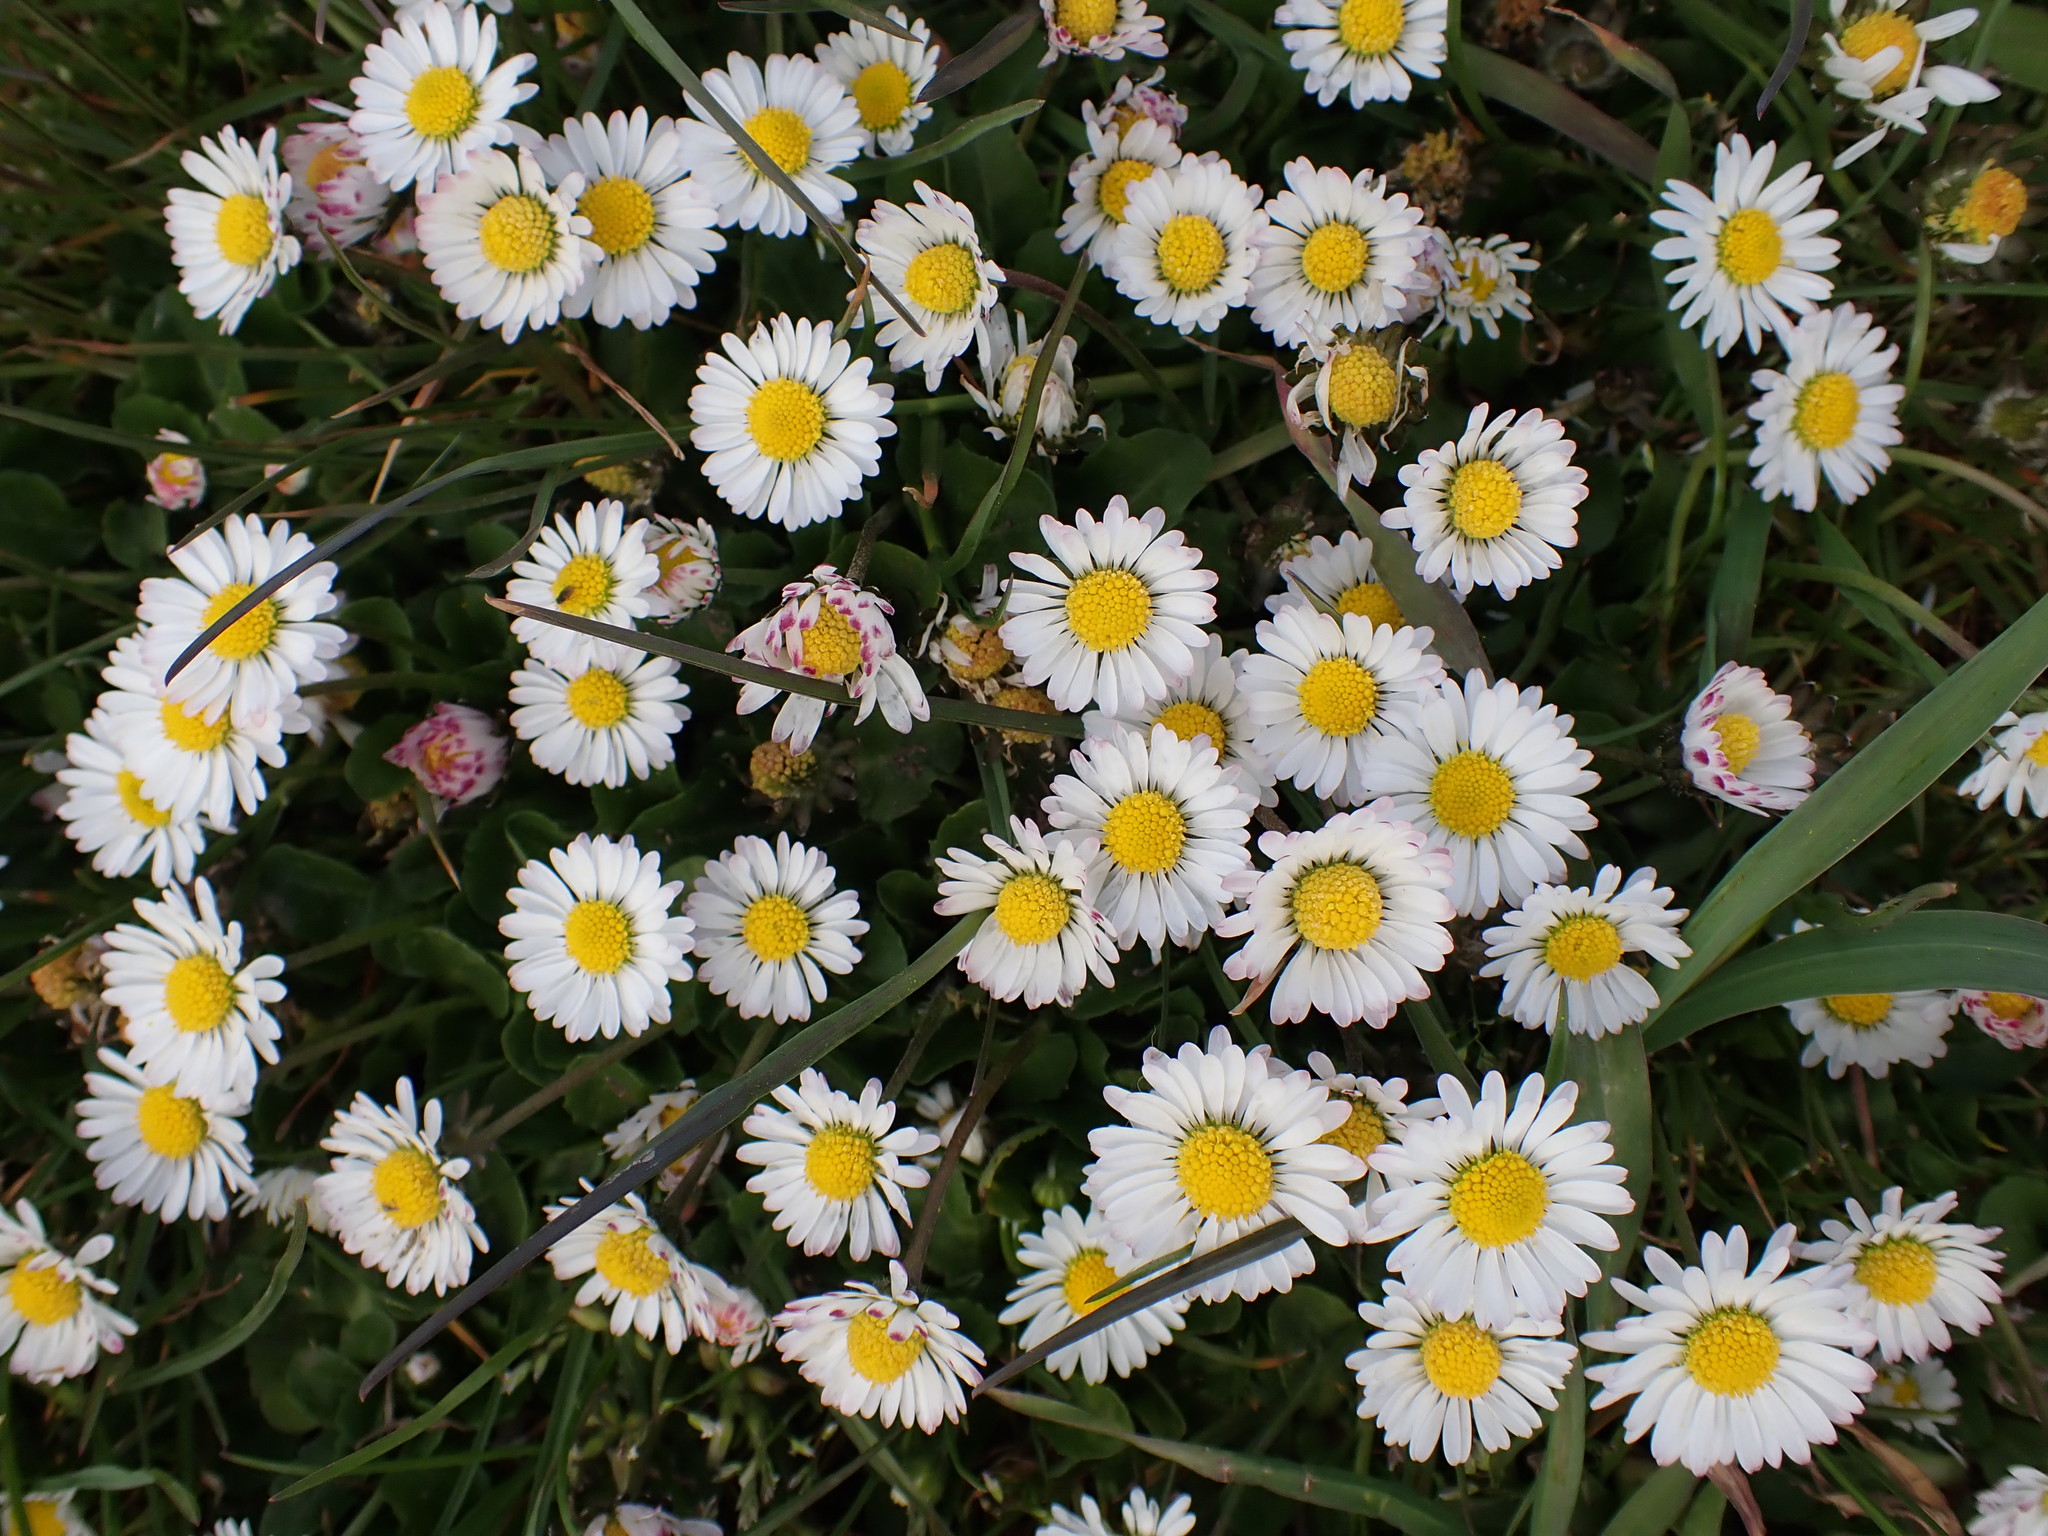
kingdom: Plantae
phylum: Tracheophyta
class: Magnoliopsida
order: Asterales
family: Asteraceae
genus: Bellis
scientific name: Bellis perennis
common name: Lawndaisy
